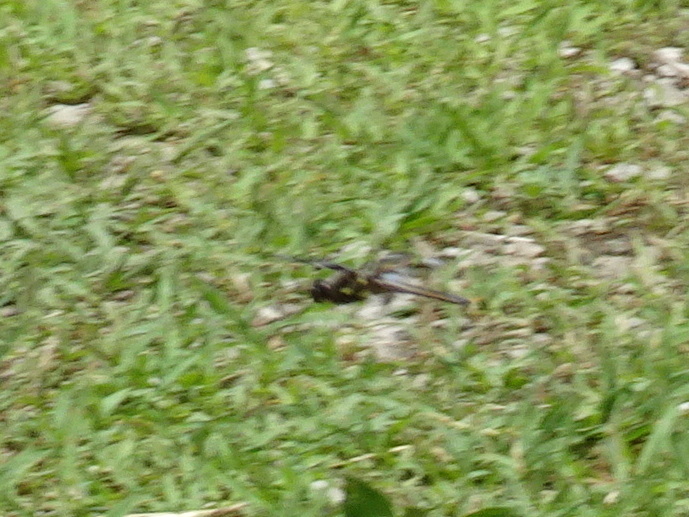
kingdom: Animalia
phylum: Arthropoda
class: Insecta
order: Odonata
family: Libellulidae
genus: Libellula
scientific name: Libellula pulchella
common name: Twelve-spotted skimmer
